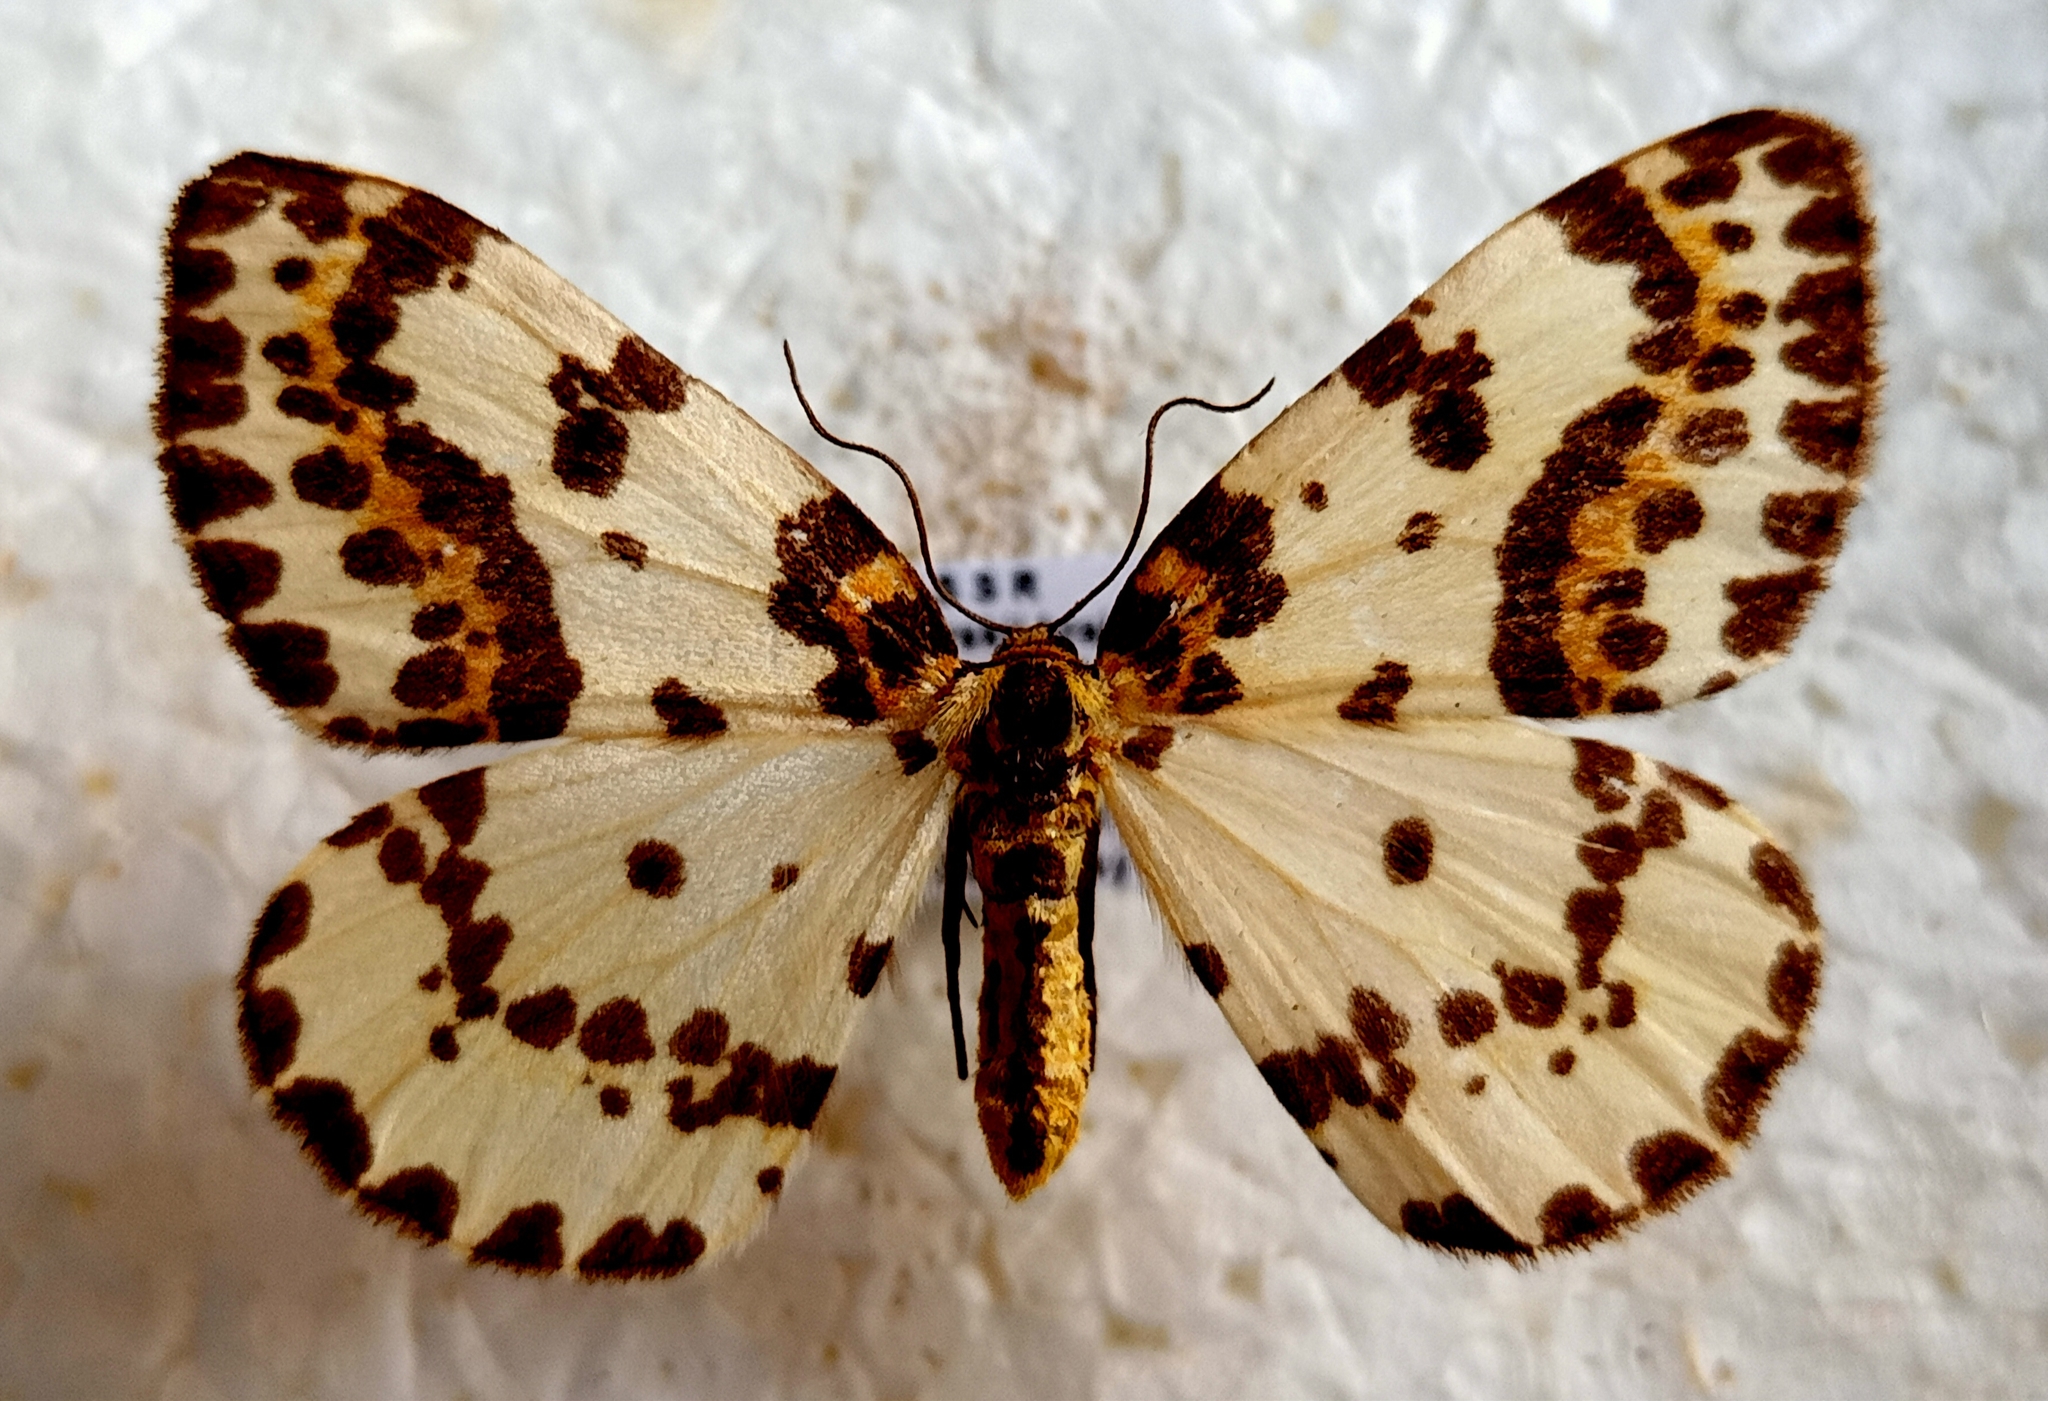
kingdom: Animalia
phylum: Arthropoda
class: Insecta
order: Lepidoptera
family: Geometridae
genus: Abraxas
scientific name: Abraxas grossulariata
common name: Magpie
